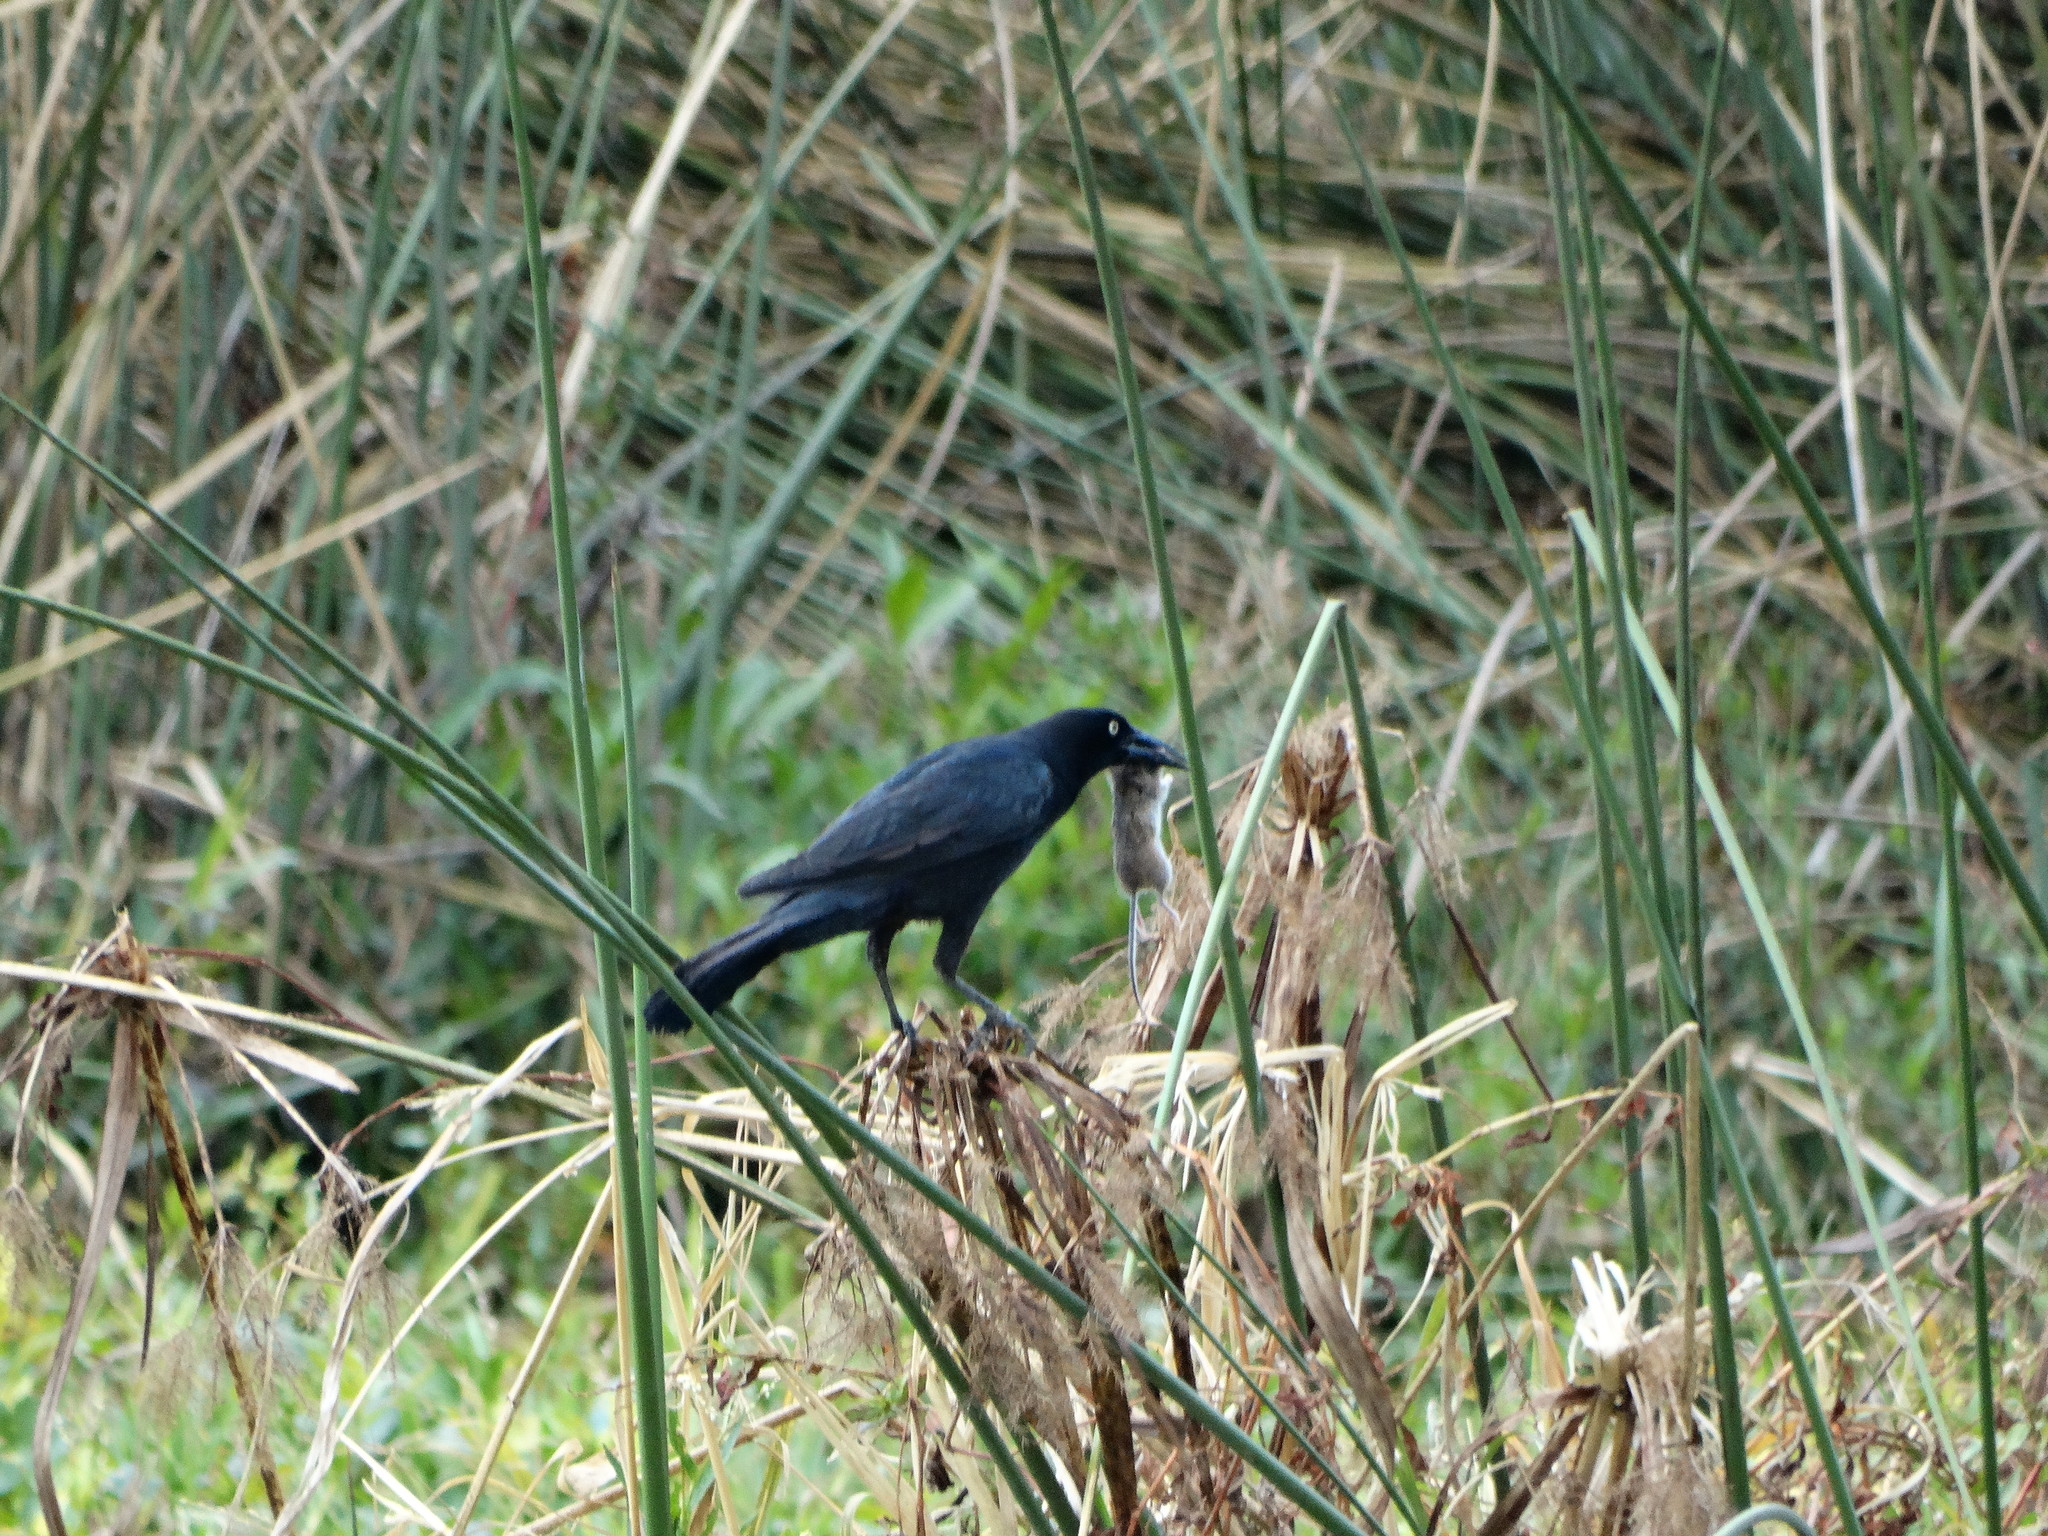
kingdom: Animalia
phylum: Chordata
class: Aves
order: Passeriformes
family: Icteridae
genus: Quiscalus
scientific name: Quiscalus mexicanus
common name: Great-tailed grackle
